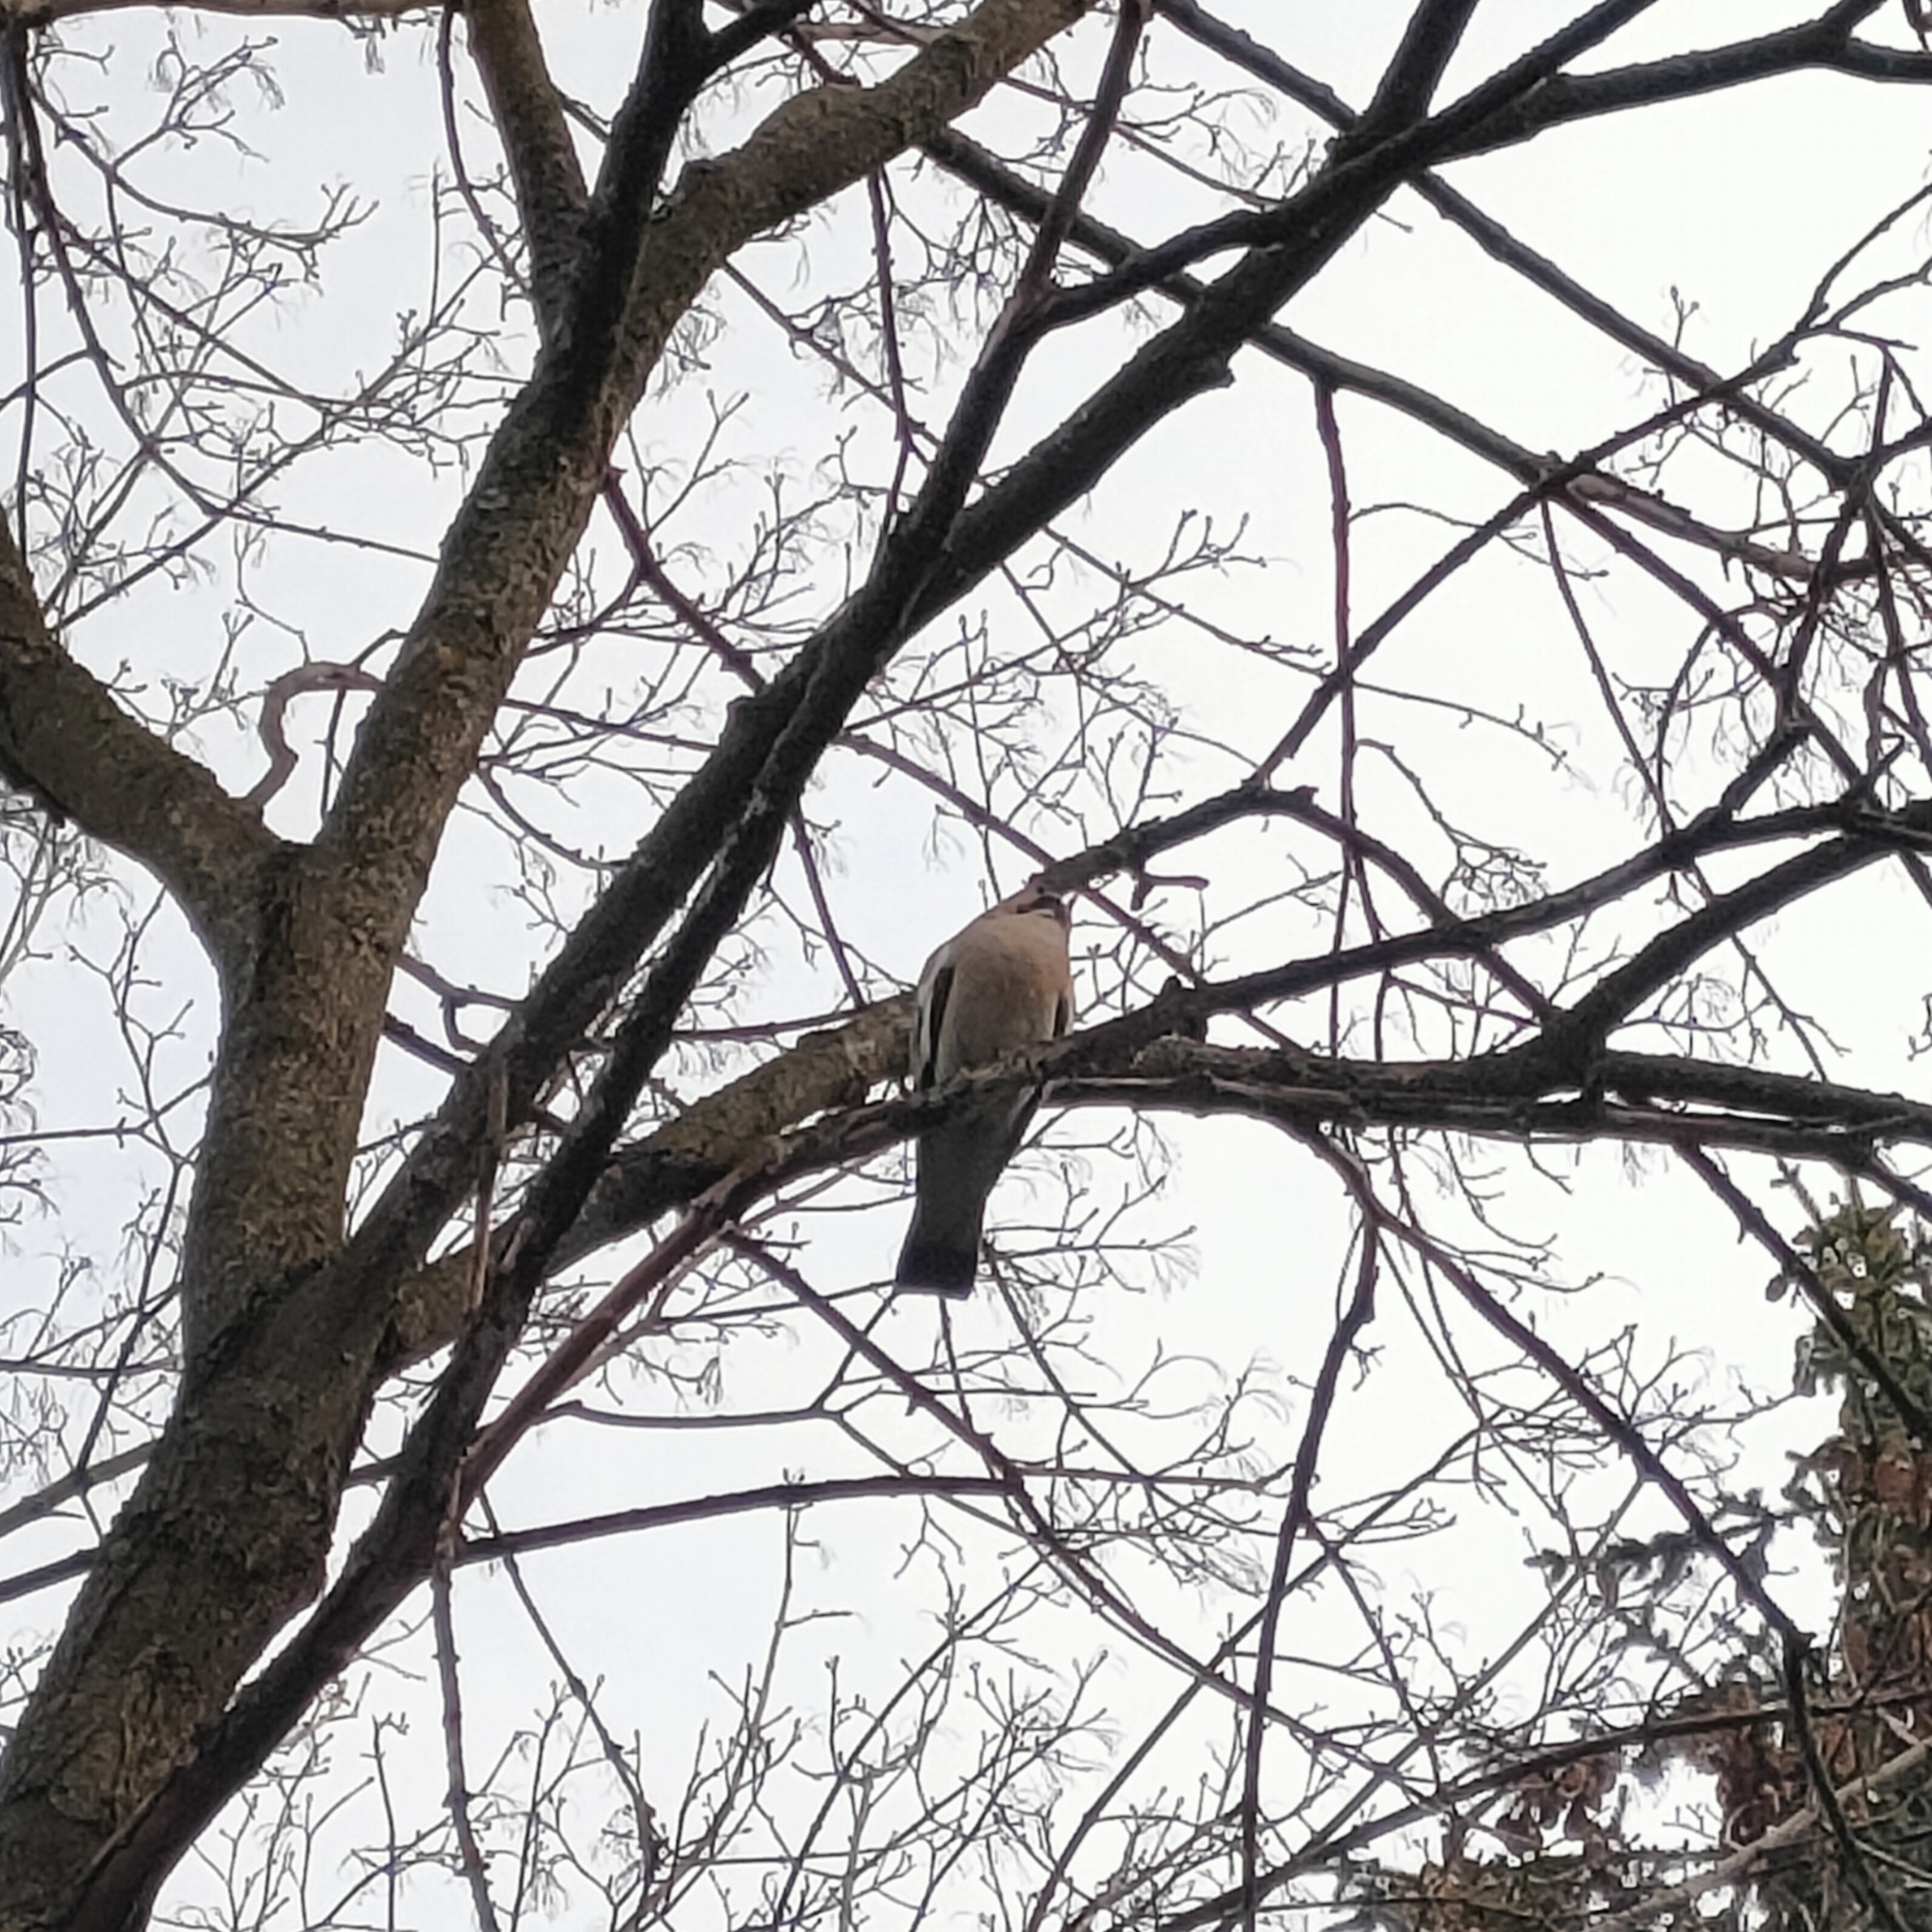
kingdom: Animalia
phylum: Chordata
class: Aves
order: Columbiformes
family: Columbidae
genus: Columba
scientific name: Columba palumbus
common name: Common wood pigeon
